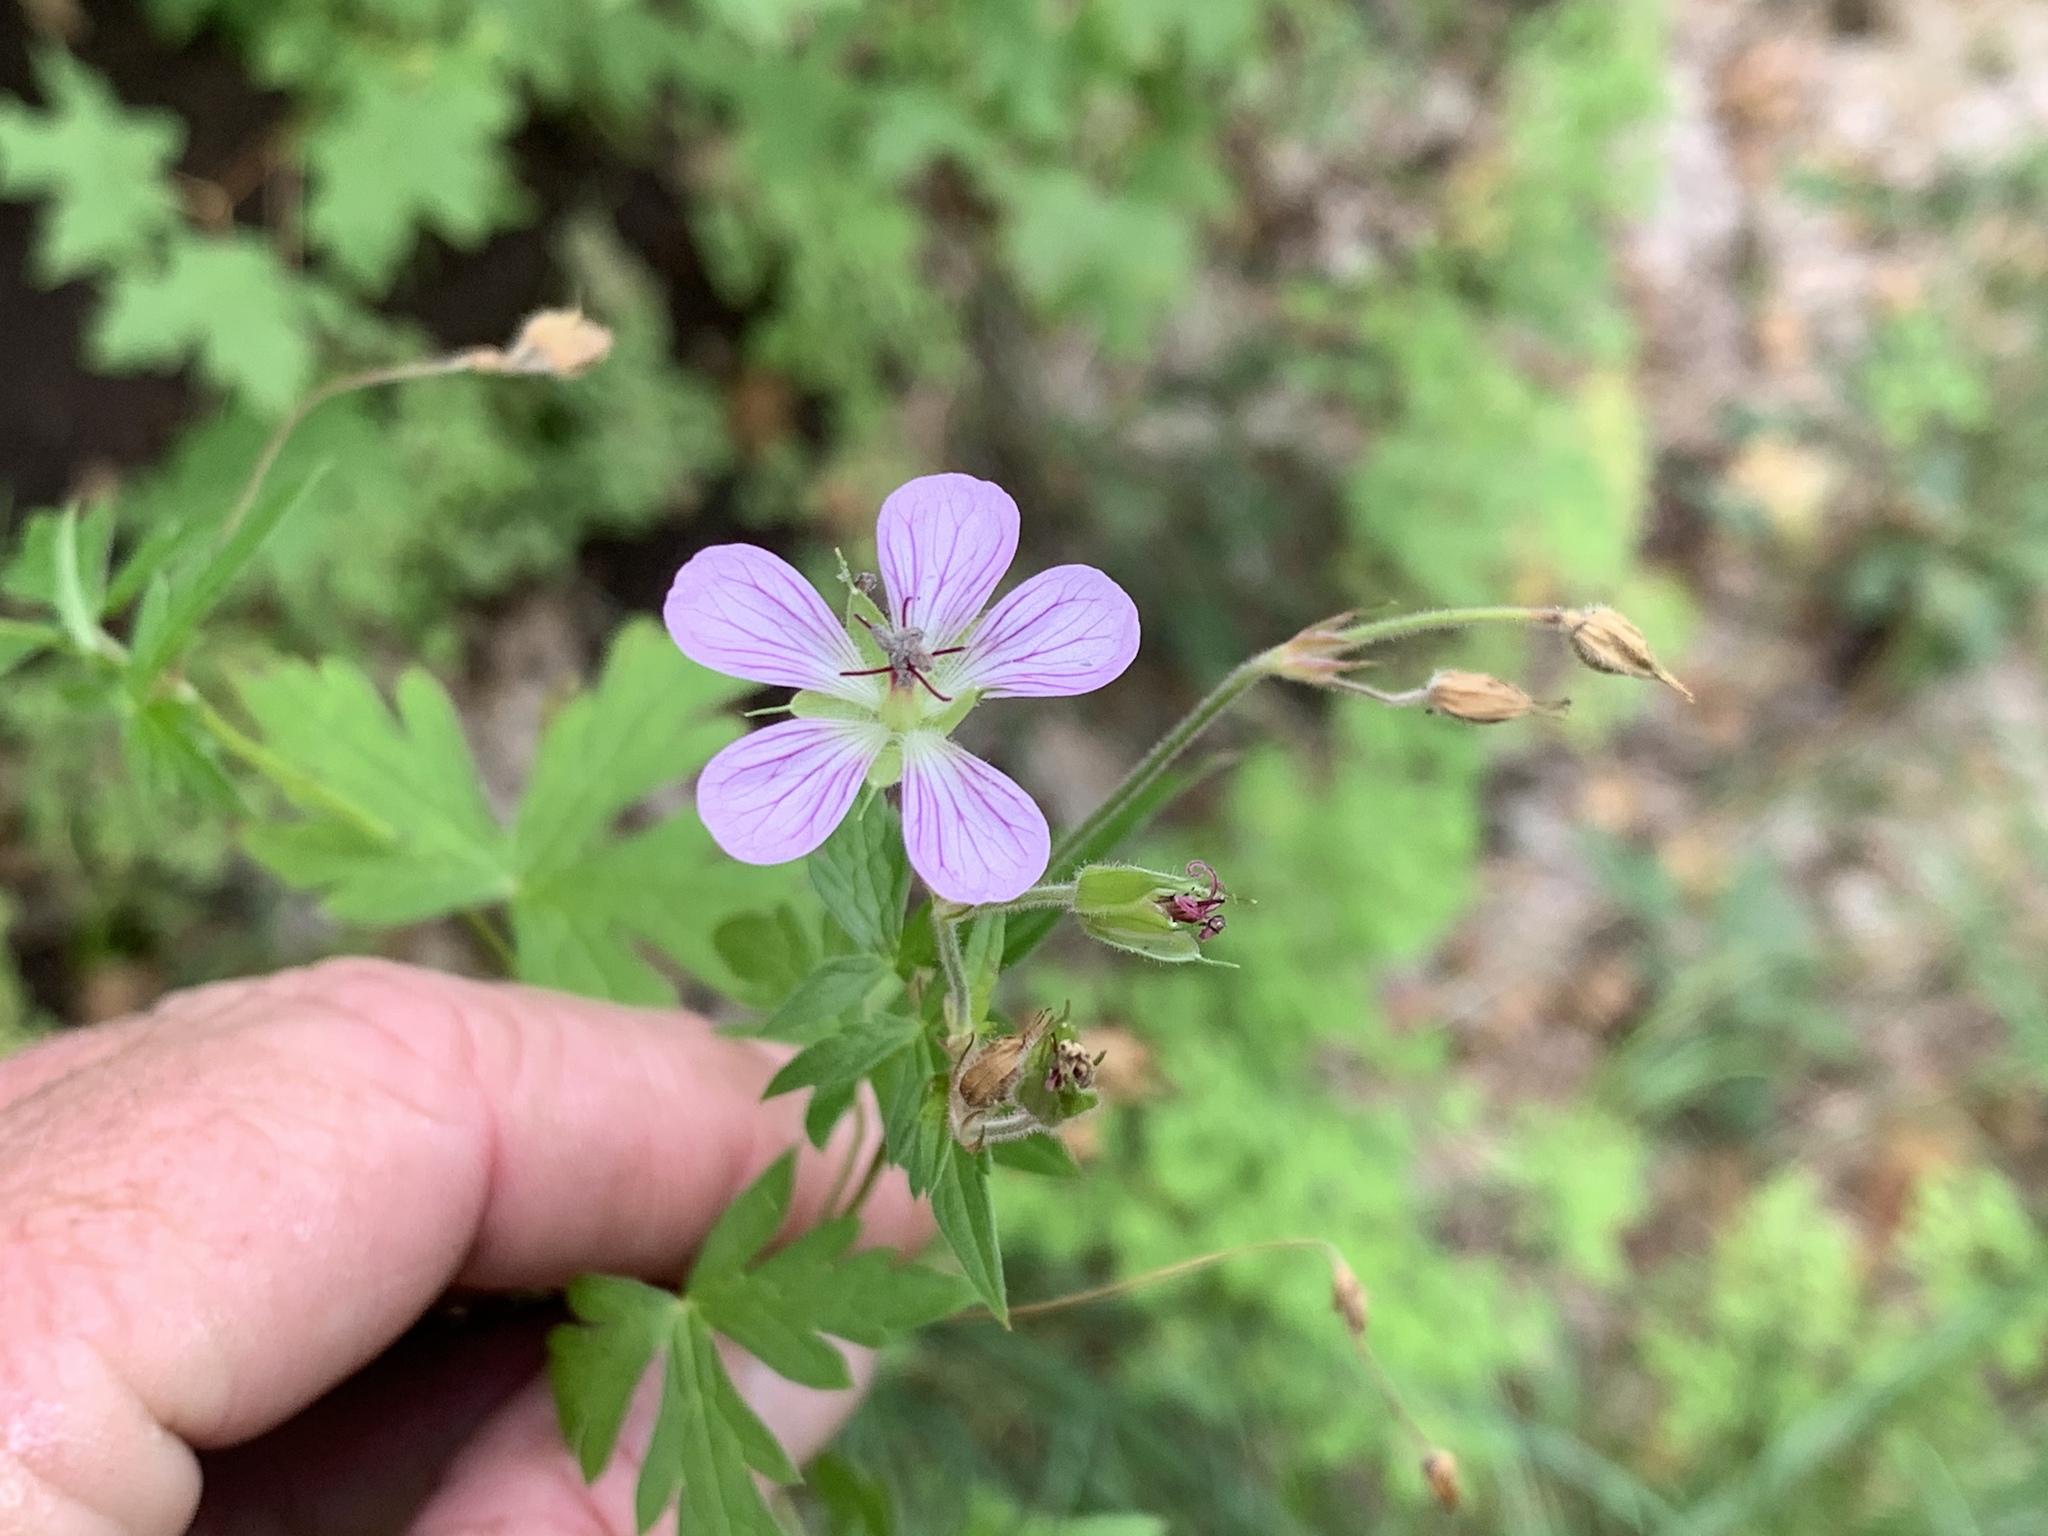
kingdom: Plantae
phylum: Tracheophyta
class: Magnoliopsida
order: Geraniales
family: Geraniaceae
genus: Geranium
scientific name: Geranium richardsonii
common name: Richardson's crane's-bill
